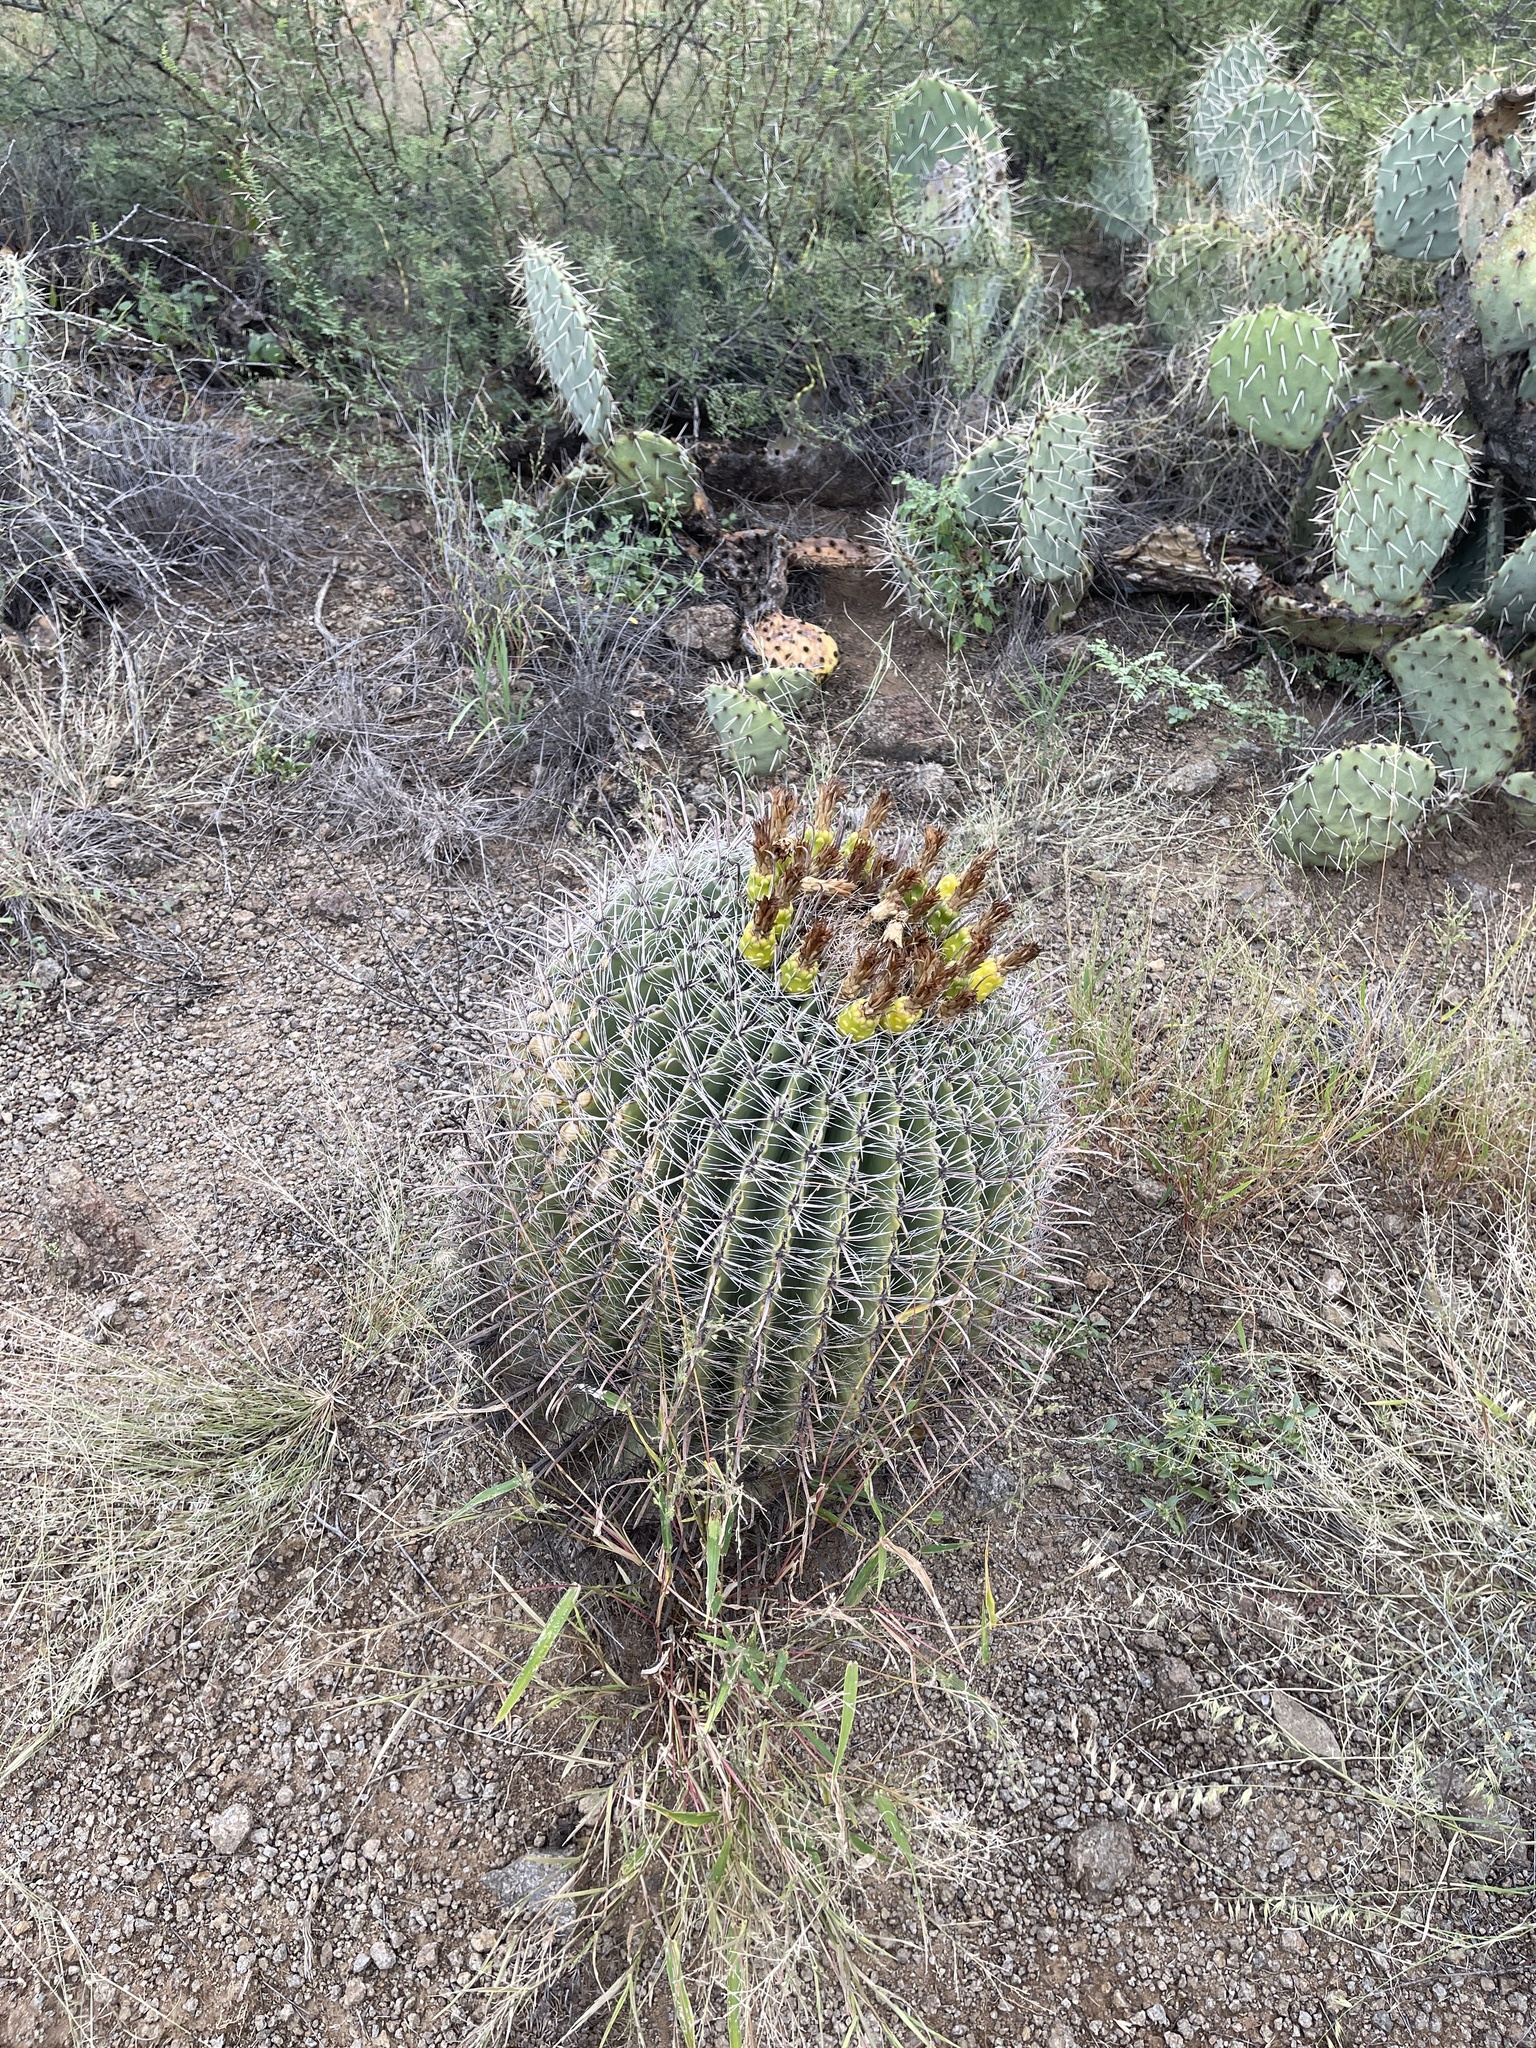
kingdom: Plantae
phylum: Tracheophyta
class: Magnoliopsida
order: Caryophyllales
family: Cactaceae
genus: Ferocactus
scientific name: Ferocactus wislizeni
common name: Candy barrel cactus
